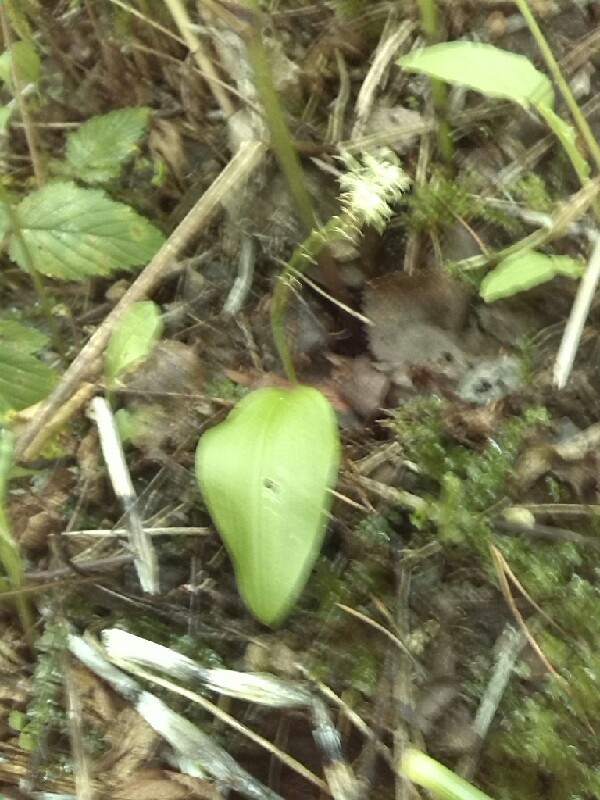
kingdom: Plantae
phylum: Tracheophyta
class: Liliopsida
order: Asparagales
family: Orchidaceae
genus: Malaxis
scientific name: Malaxis monophyllos
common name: White adder's-mouth
